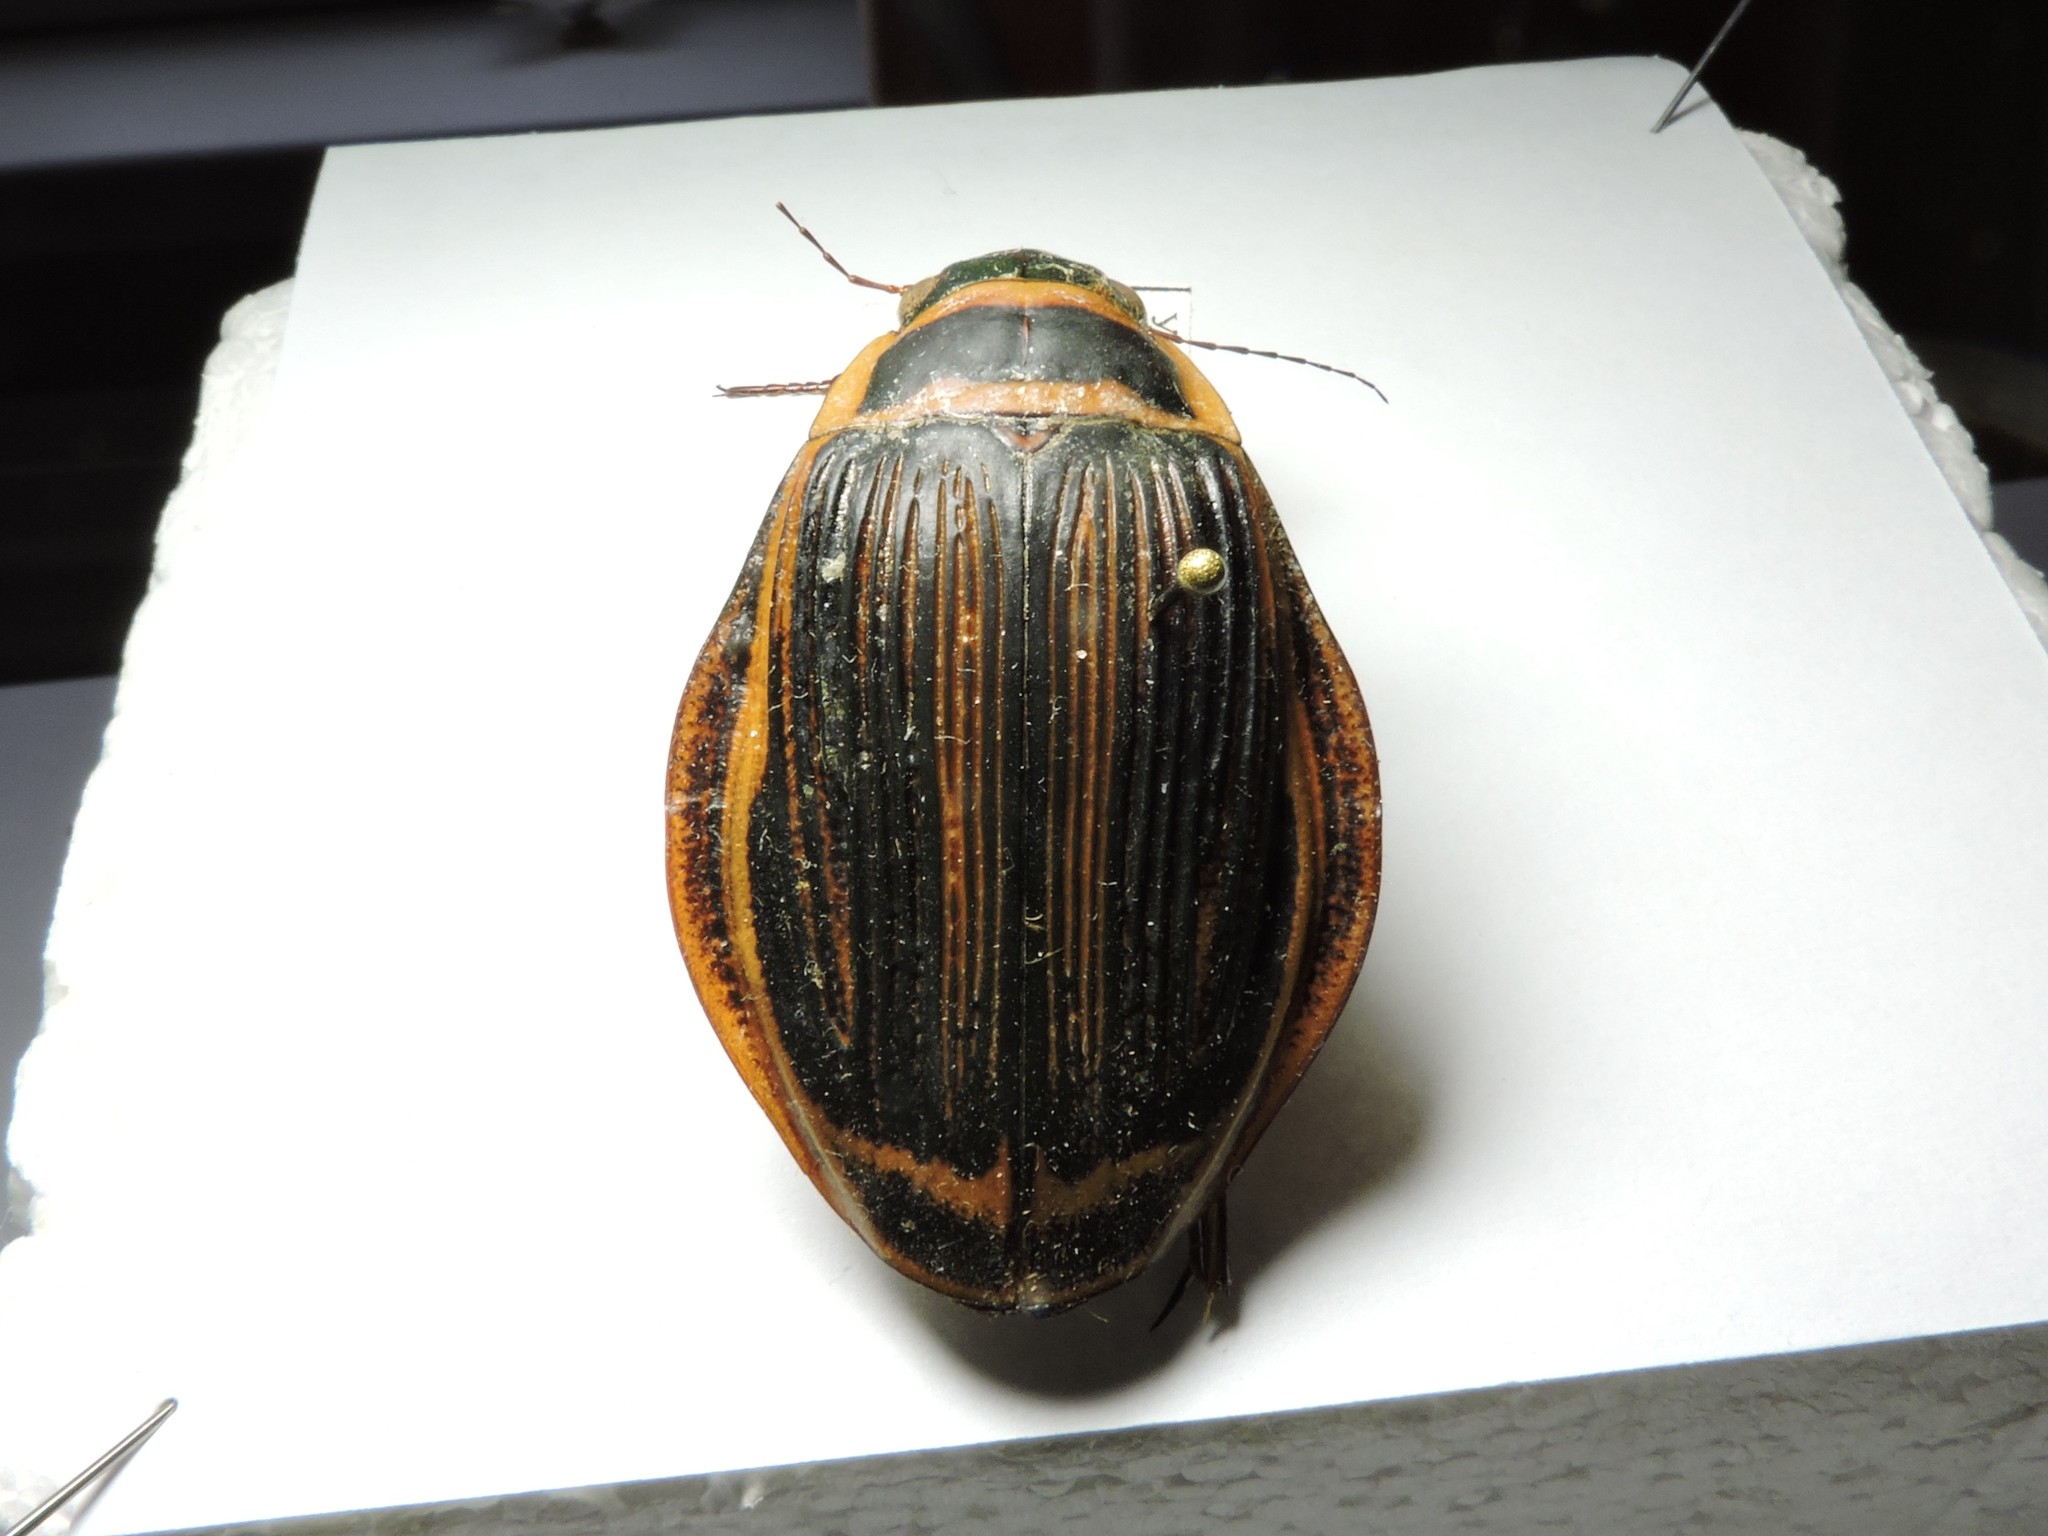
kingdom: Animalia
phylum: Arthropoda
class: Insecta
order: Coleoptera
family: Dytiscidae
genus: Dytiscus
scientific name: Dytiscus latissimus
